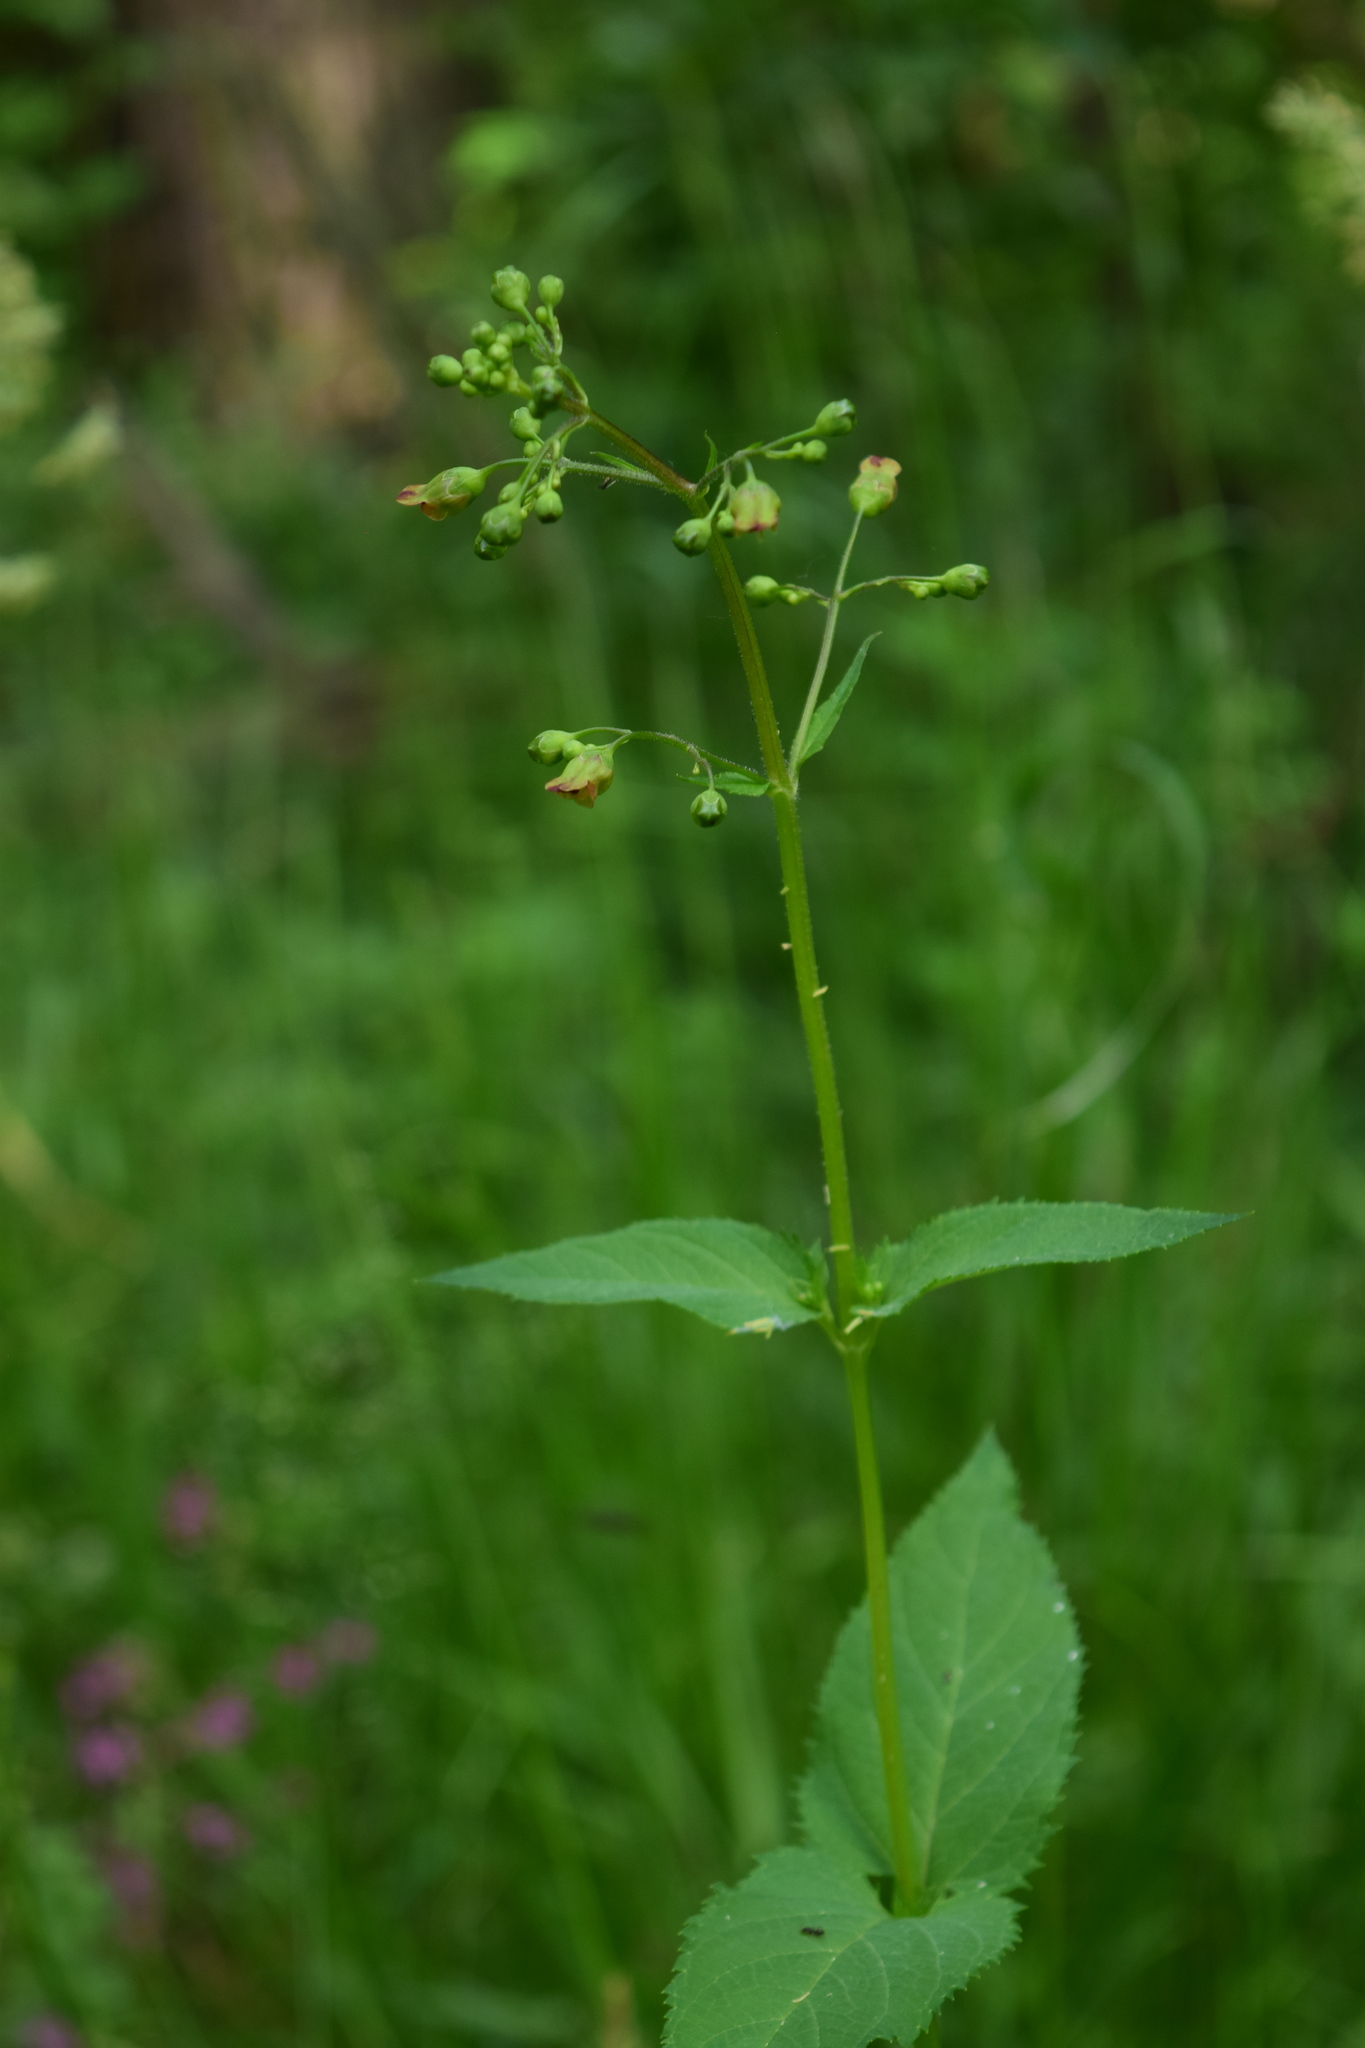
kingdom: Plantae
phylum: Tracheophyta
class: Magnoliopsida
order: Lamiales
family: Scrophulariaceae
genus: Scrophularia
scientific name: Scrophularia nodosa
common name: Common figwort
